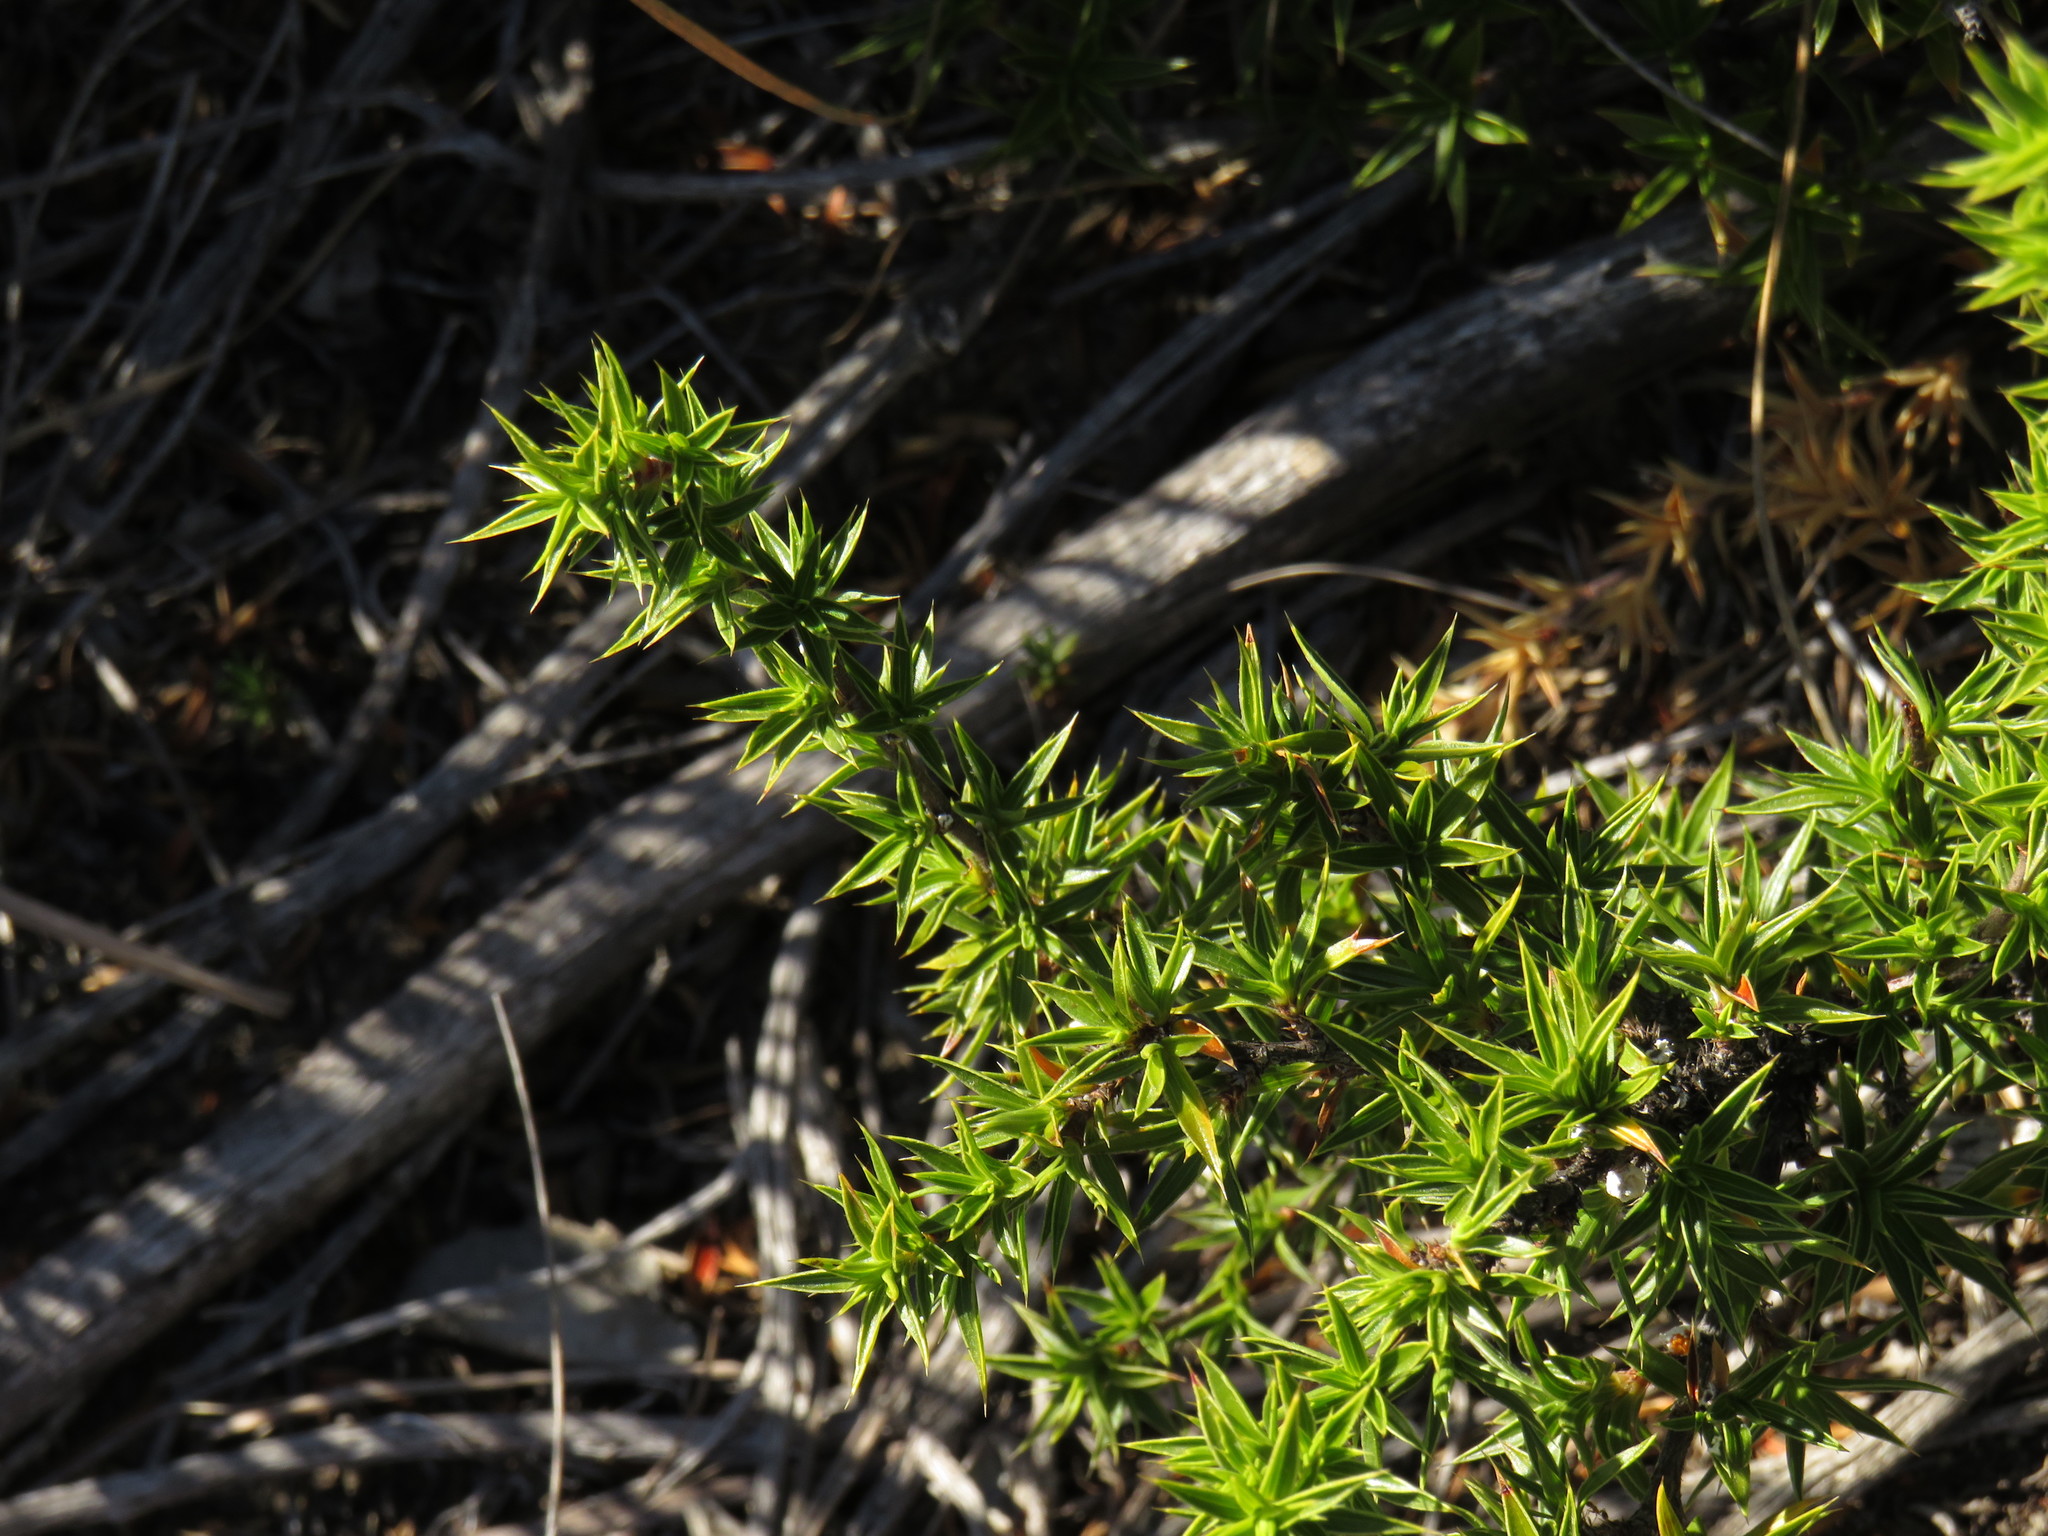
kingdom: Plantae
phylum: Tracheophyta
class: Magnoliopsida
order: Rosales
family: Rosaceae
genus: Cliffortia
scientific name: Cliffortia ruscifolia
